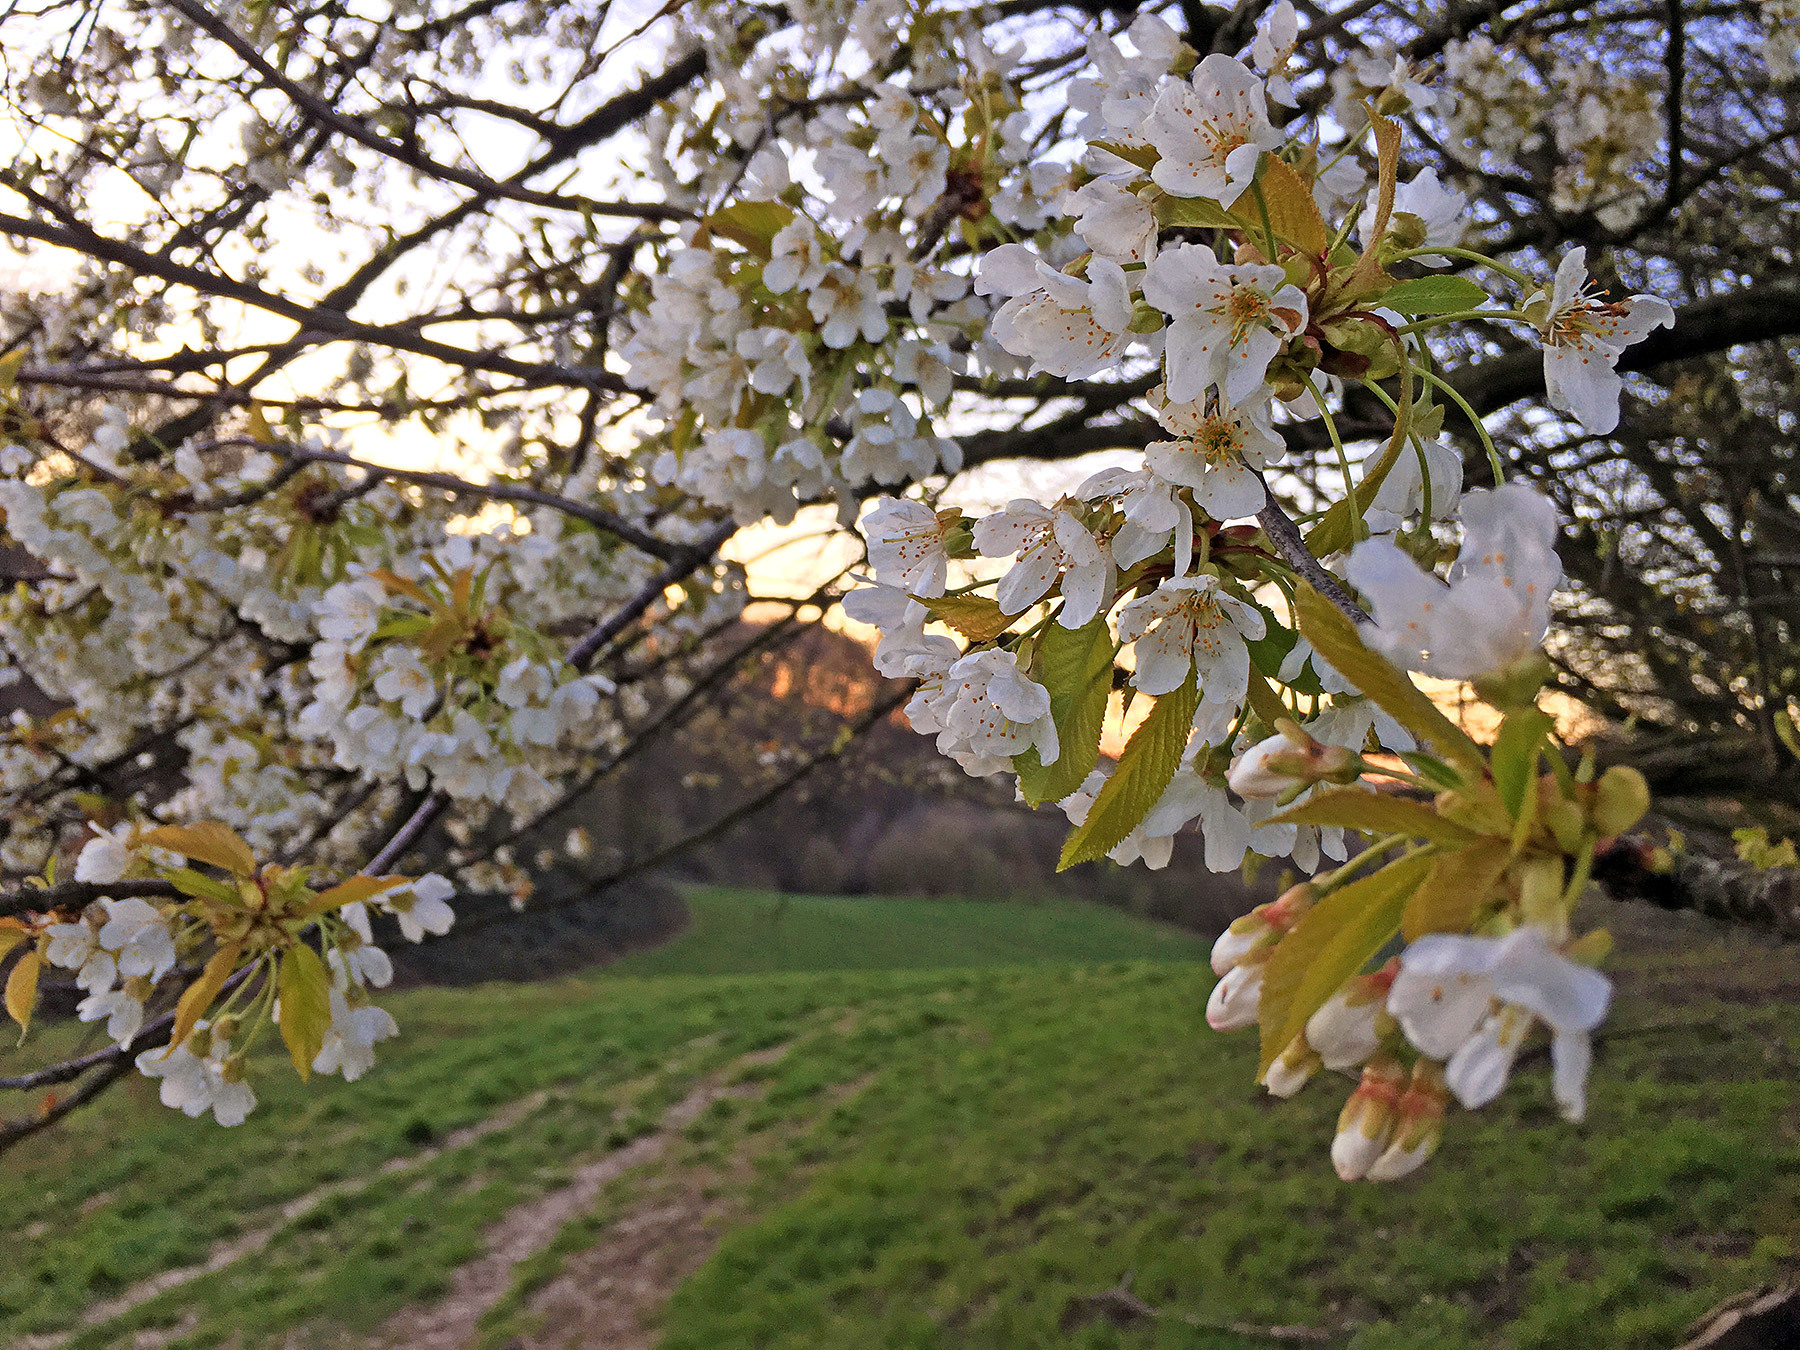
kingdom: Plantae
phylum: Tracheophyta
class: Magnoliopsida
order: Rosales
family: Rosaceae
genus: Prunus
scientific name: Prunus avium
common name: Sweet cherry
